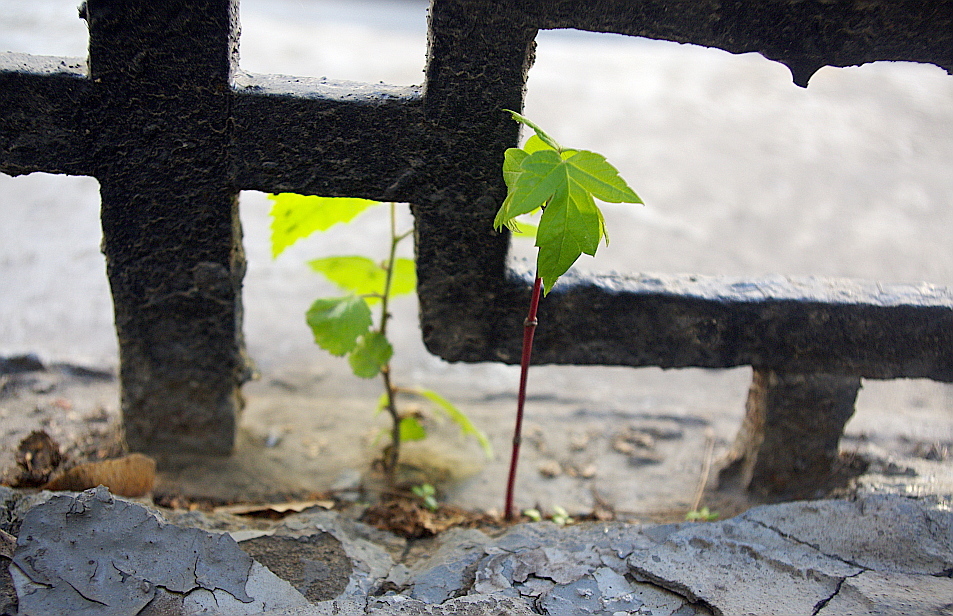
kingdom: Plantae
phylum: Tracheophyta
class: Magnoliopsida
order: Sapindales
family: Sapindaceae
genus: Acer
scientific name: Acer negundo
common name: Ashleaf maple
